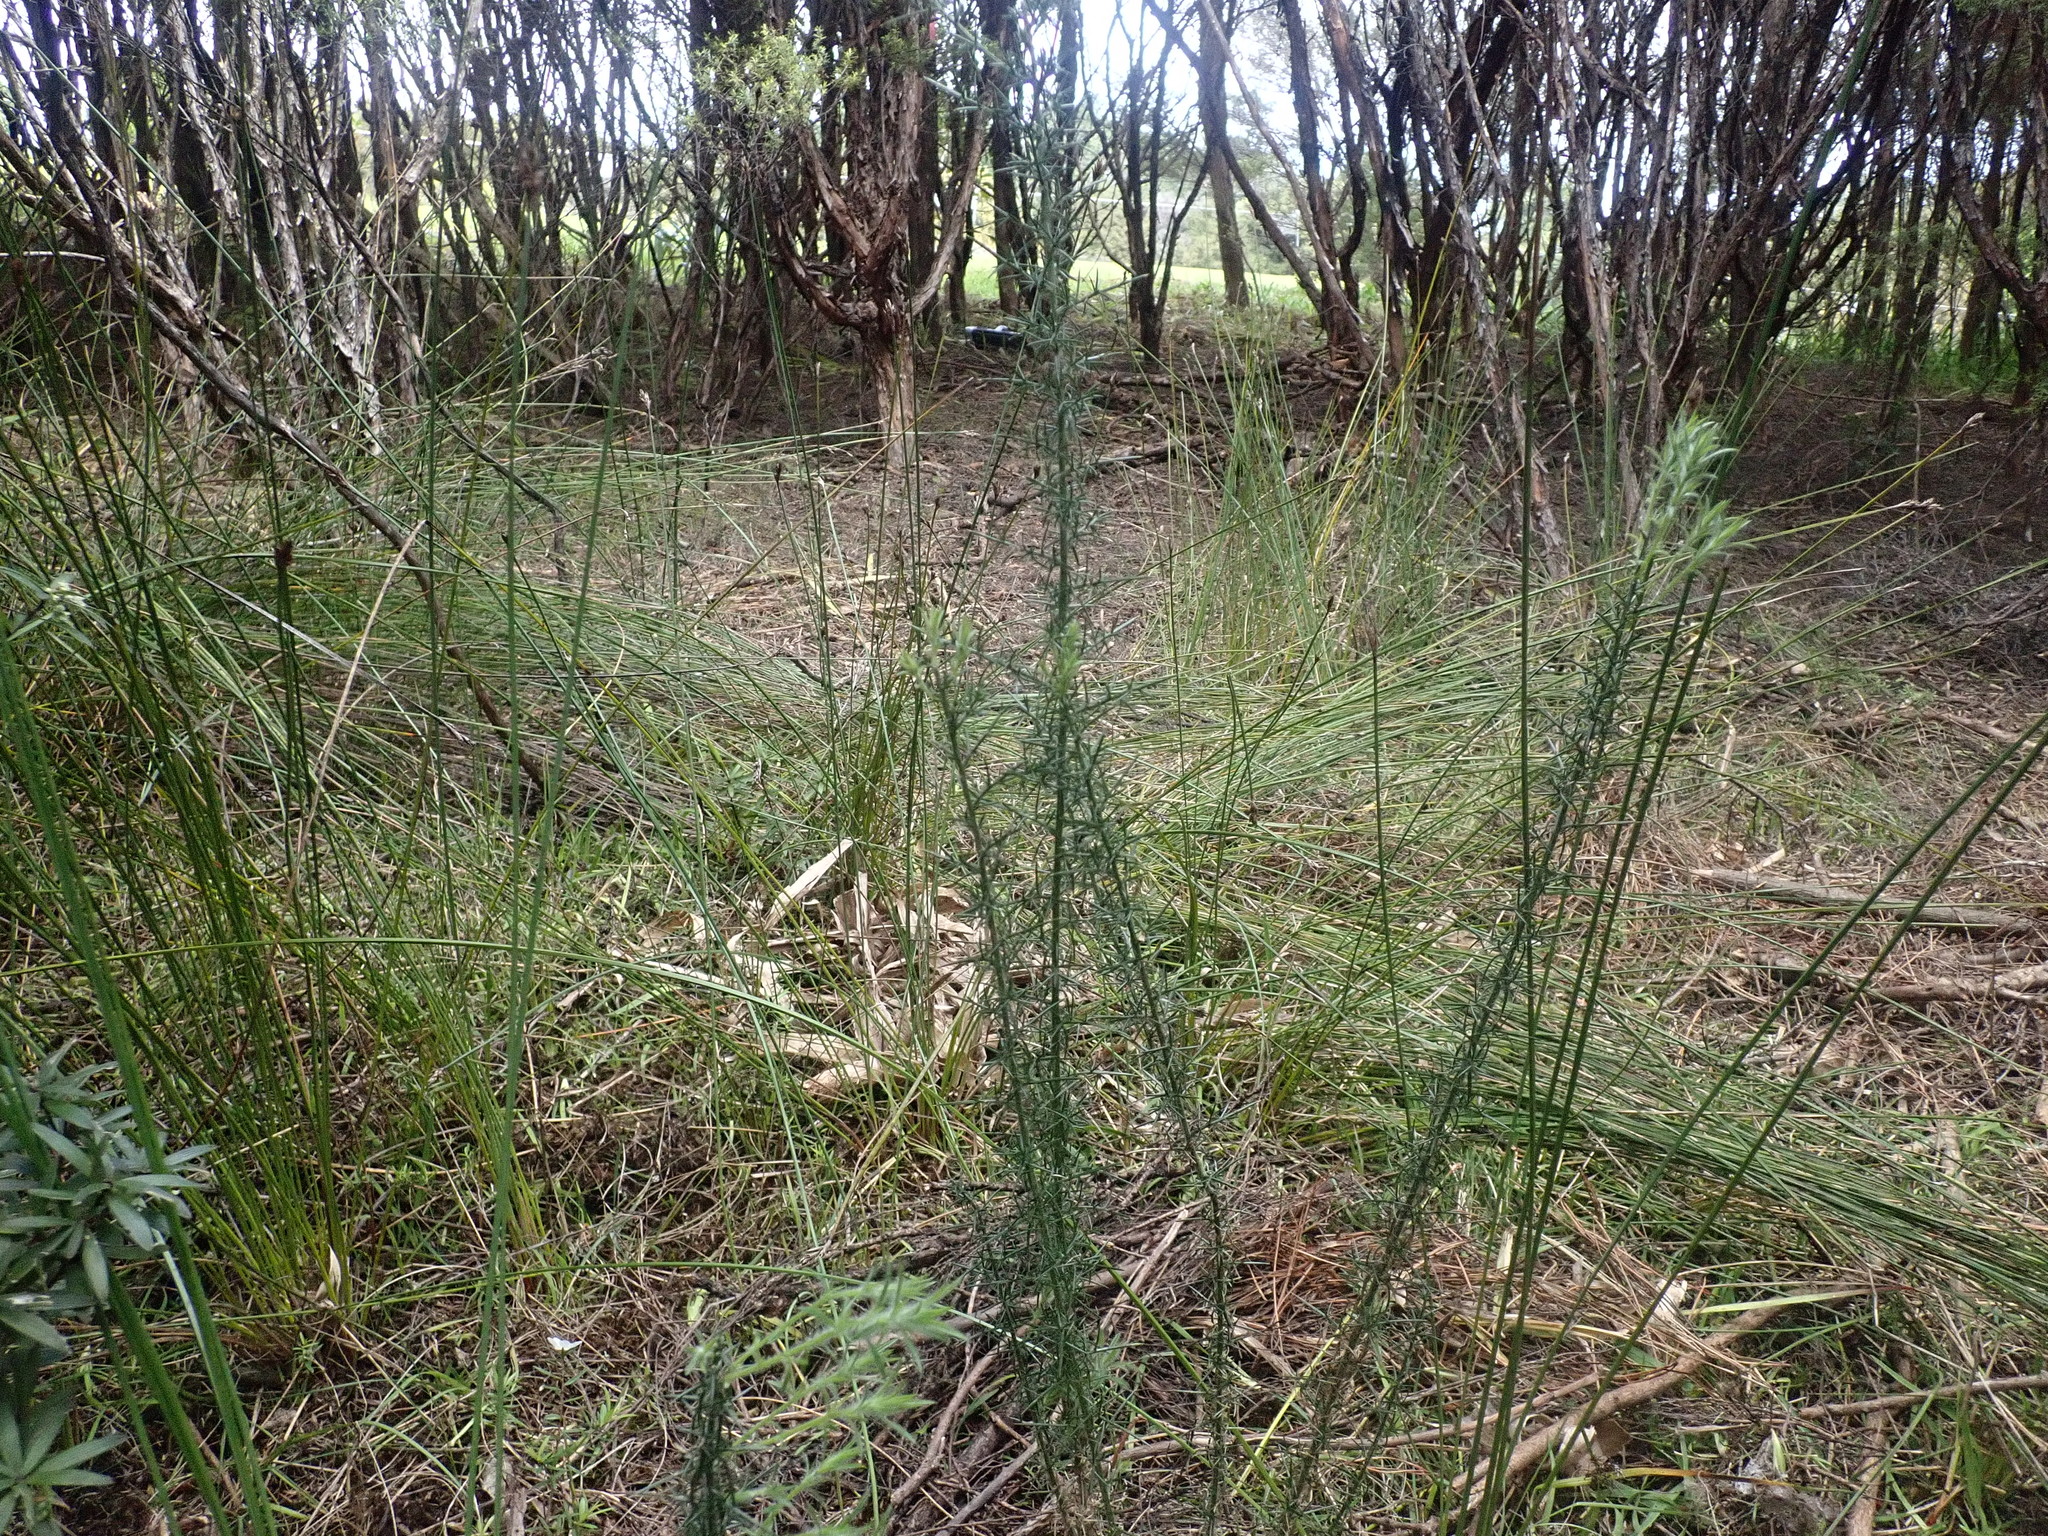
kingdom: Plantae
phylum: Tracheophyta
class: Magnoliopsida
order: Fabales
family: Fabaceae
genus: Ulex
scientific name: Ulex europaeus
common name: Common gorse
